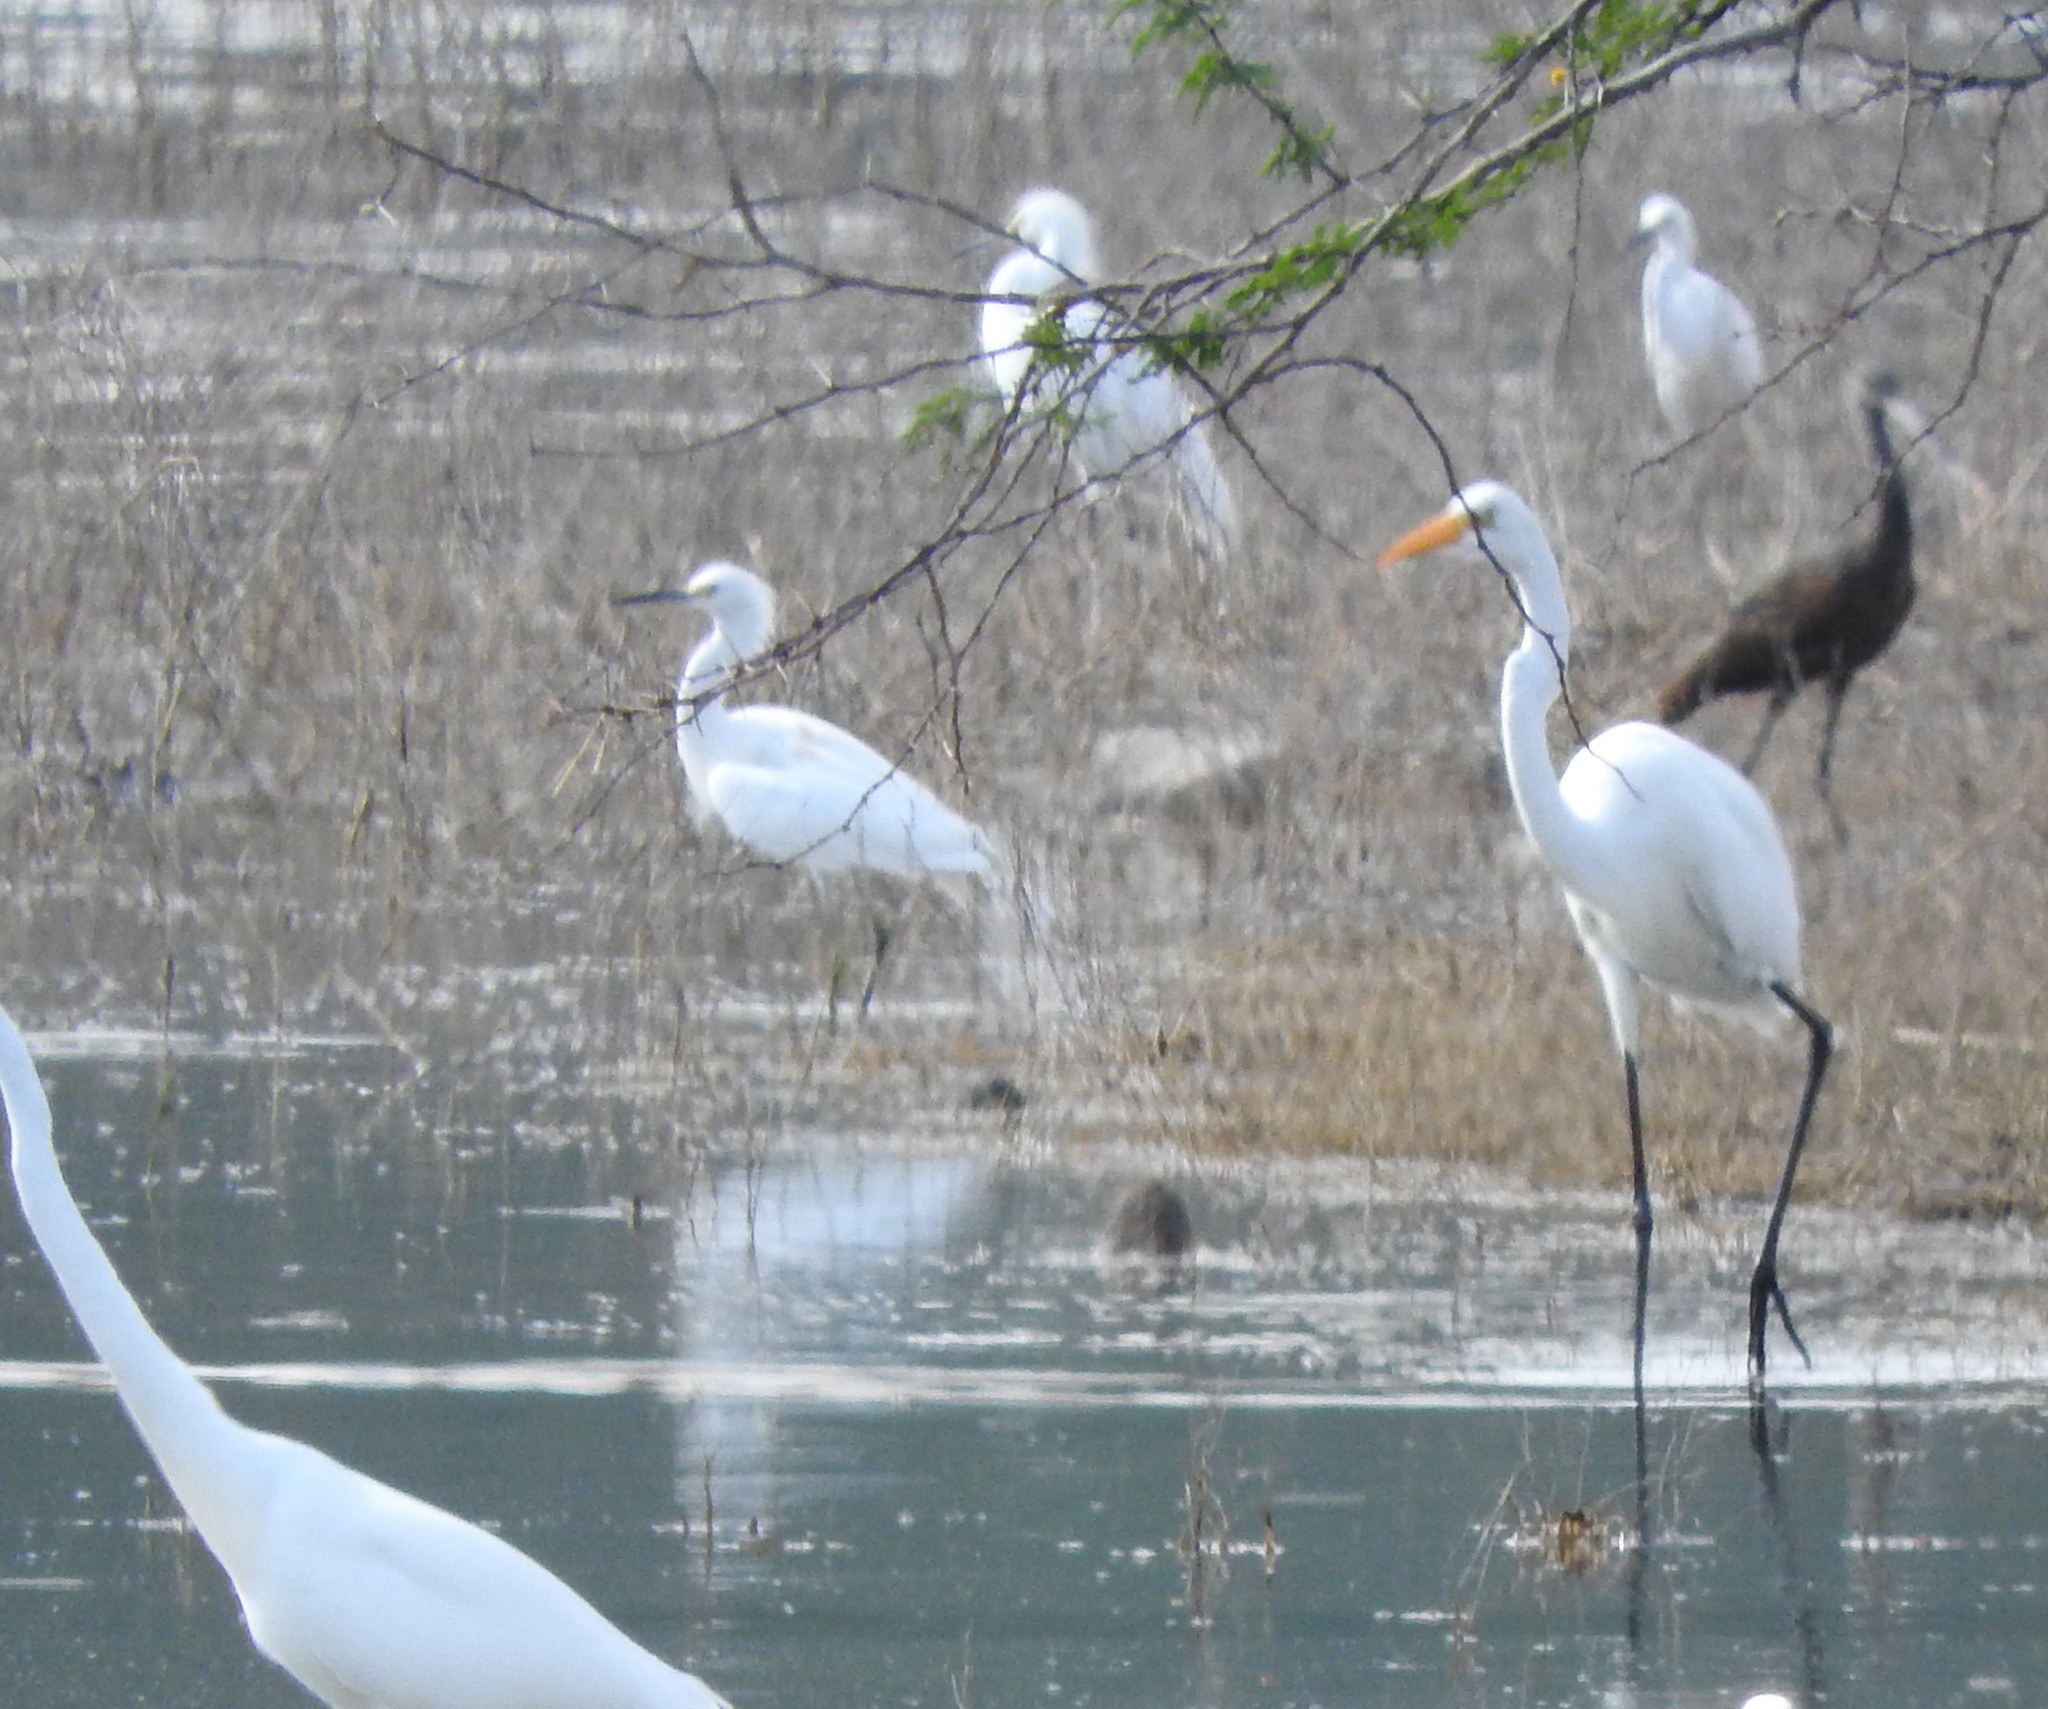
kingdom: Animalia
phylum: Chordata
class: Aves
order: Pelecaniformes
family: Ardeidae
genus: Egretta
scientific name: Egretta thula
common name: Snowy egret
